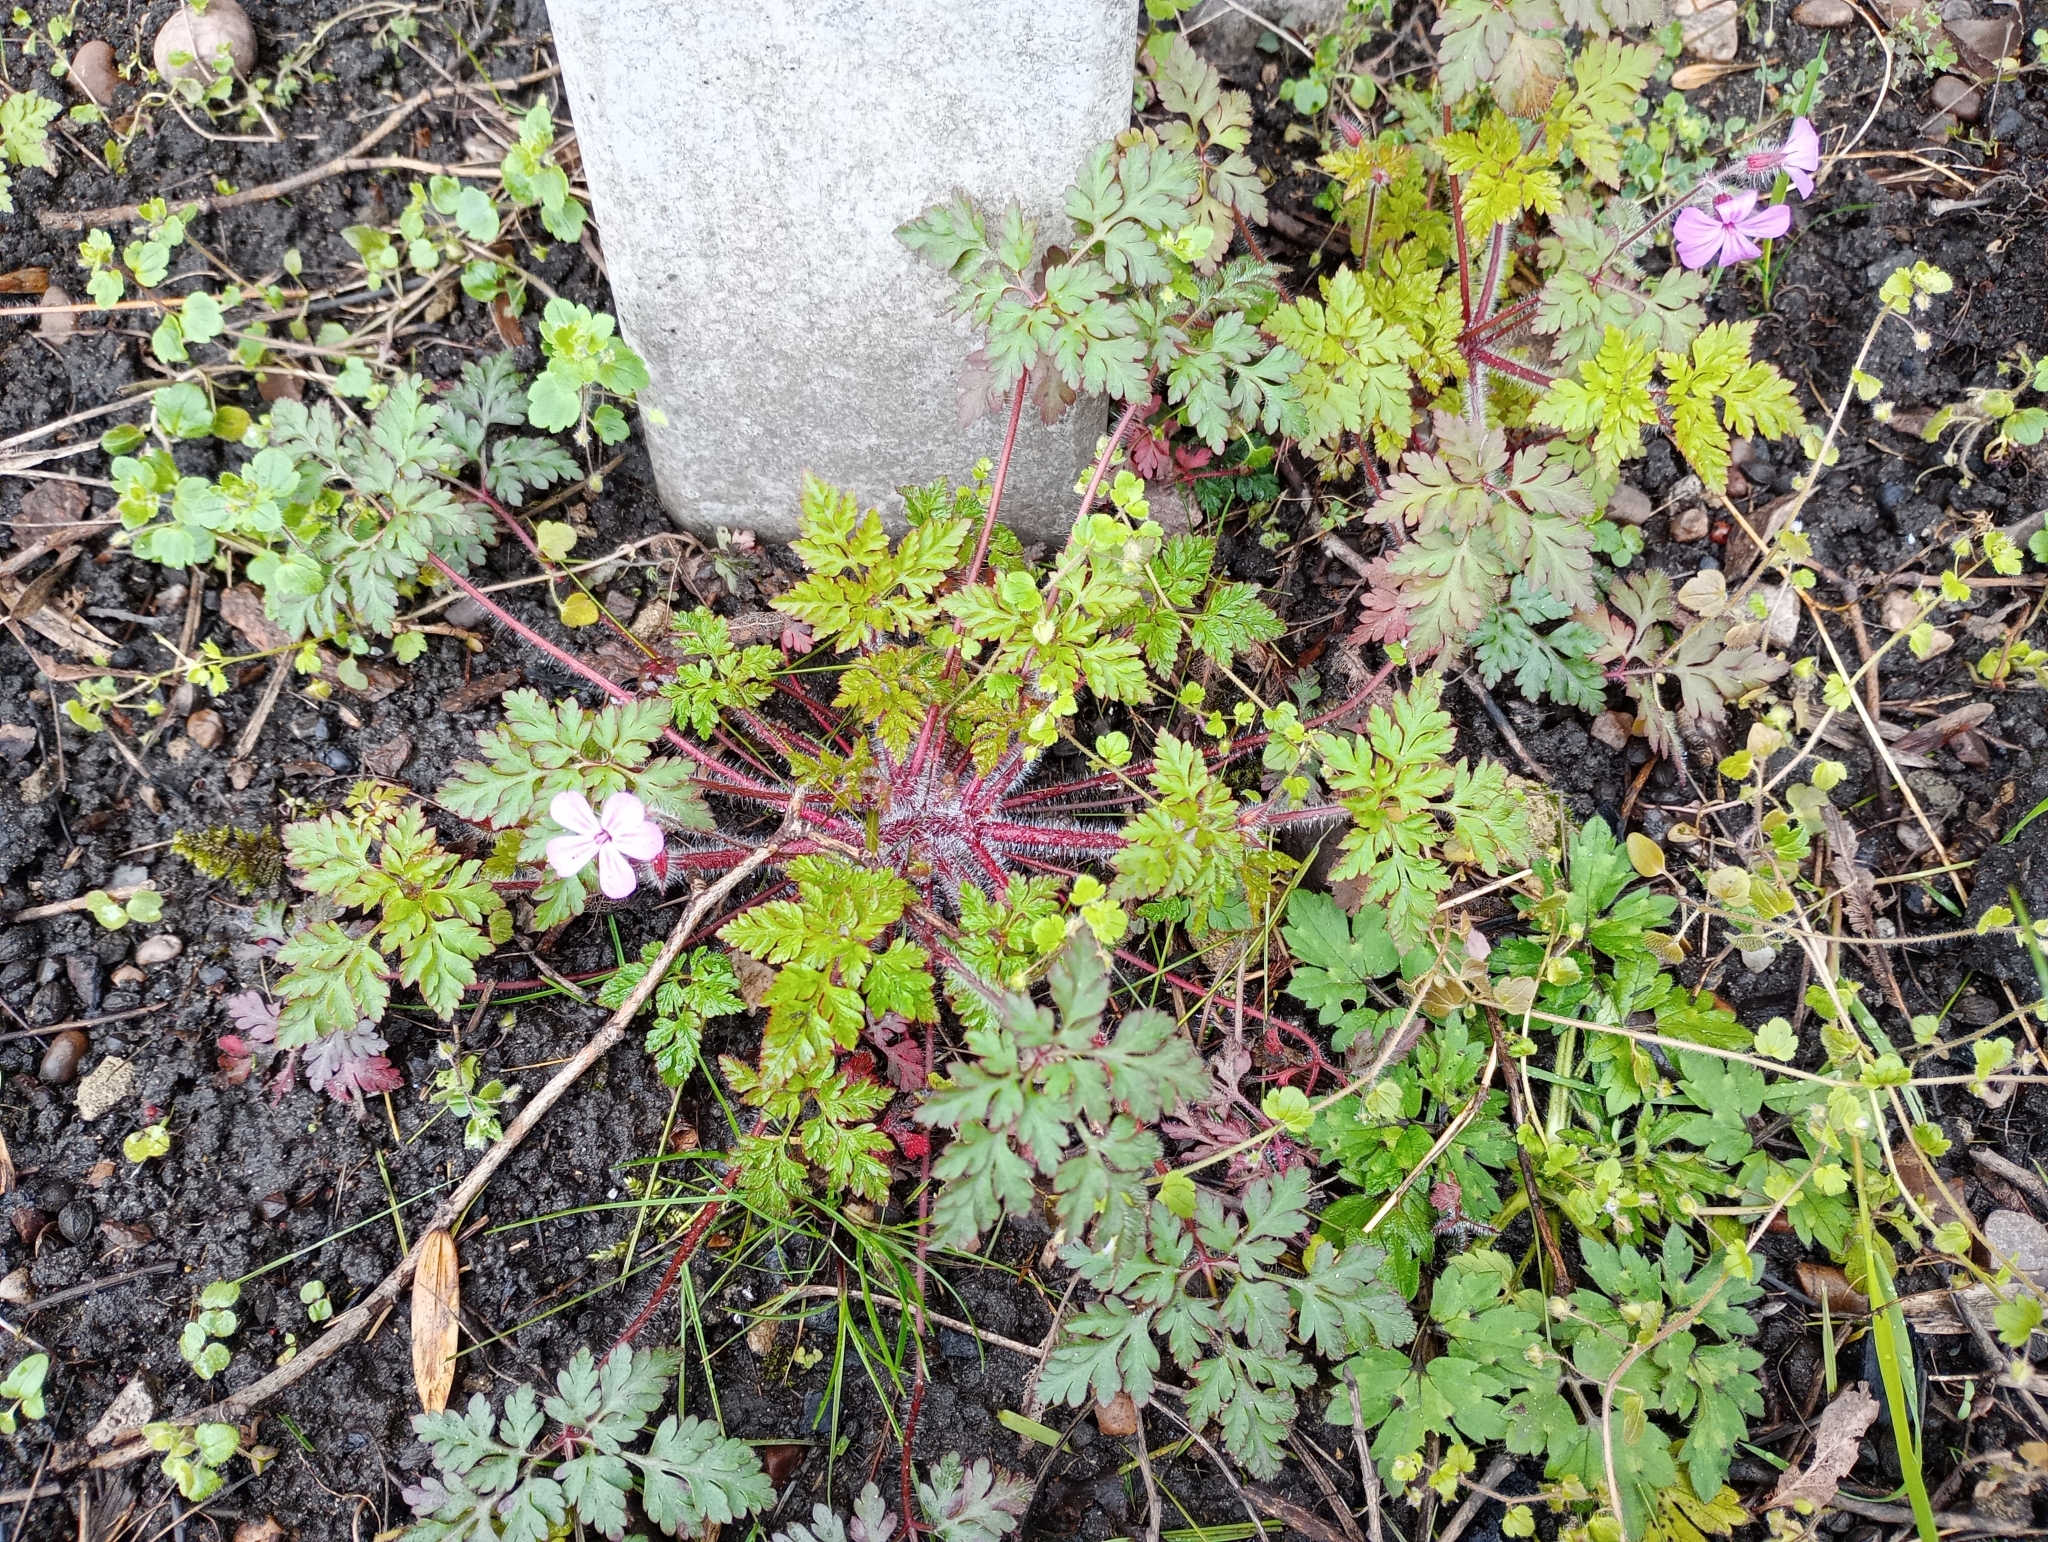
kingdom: Plantae
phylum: Tracheophyta
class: Magnoliopsida
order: Geraniales
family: Geraniaceae
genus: Geranium
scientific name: Geranium robertianum
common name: Herb-robert
